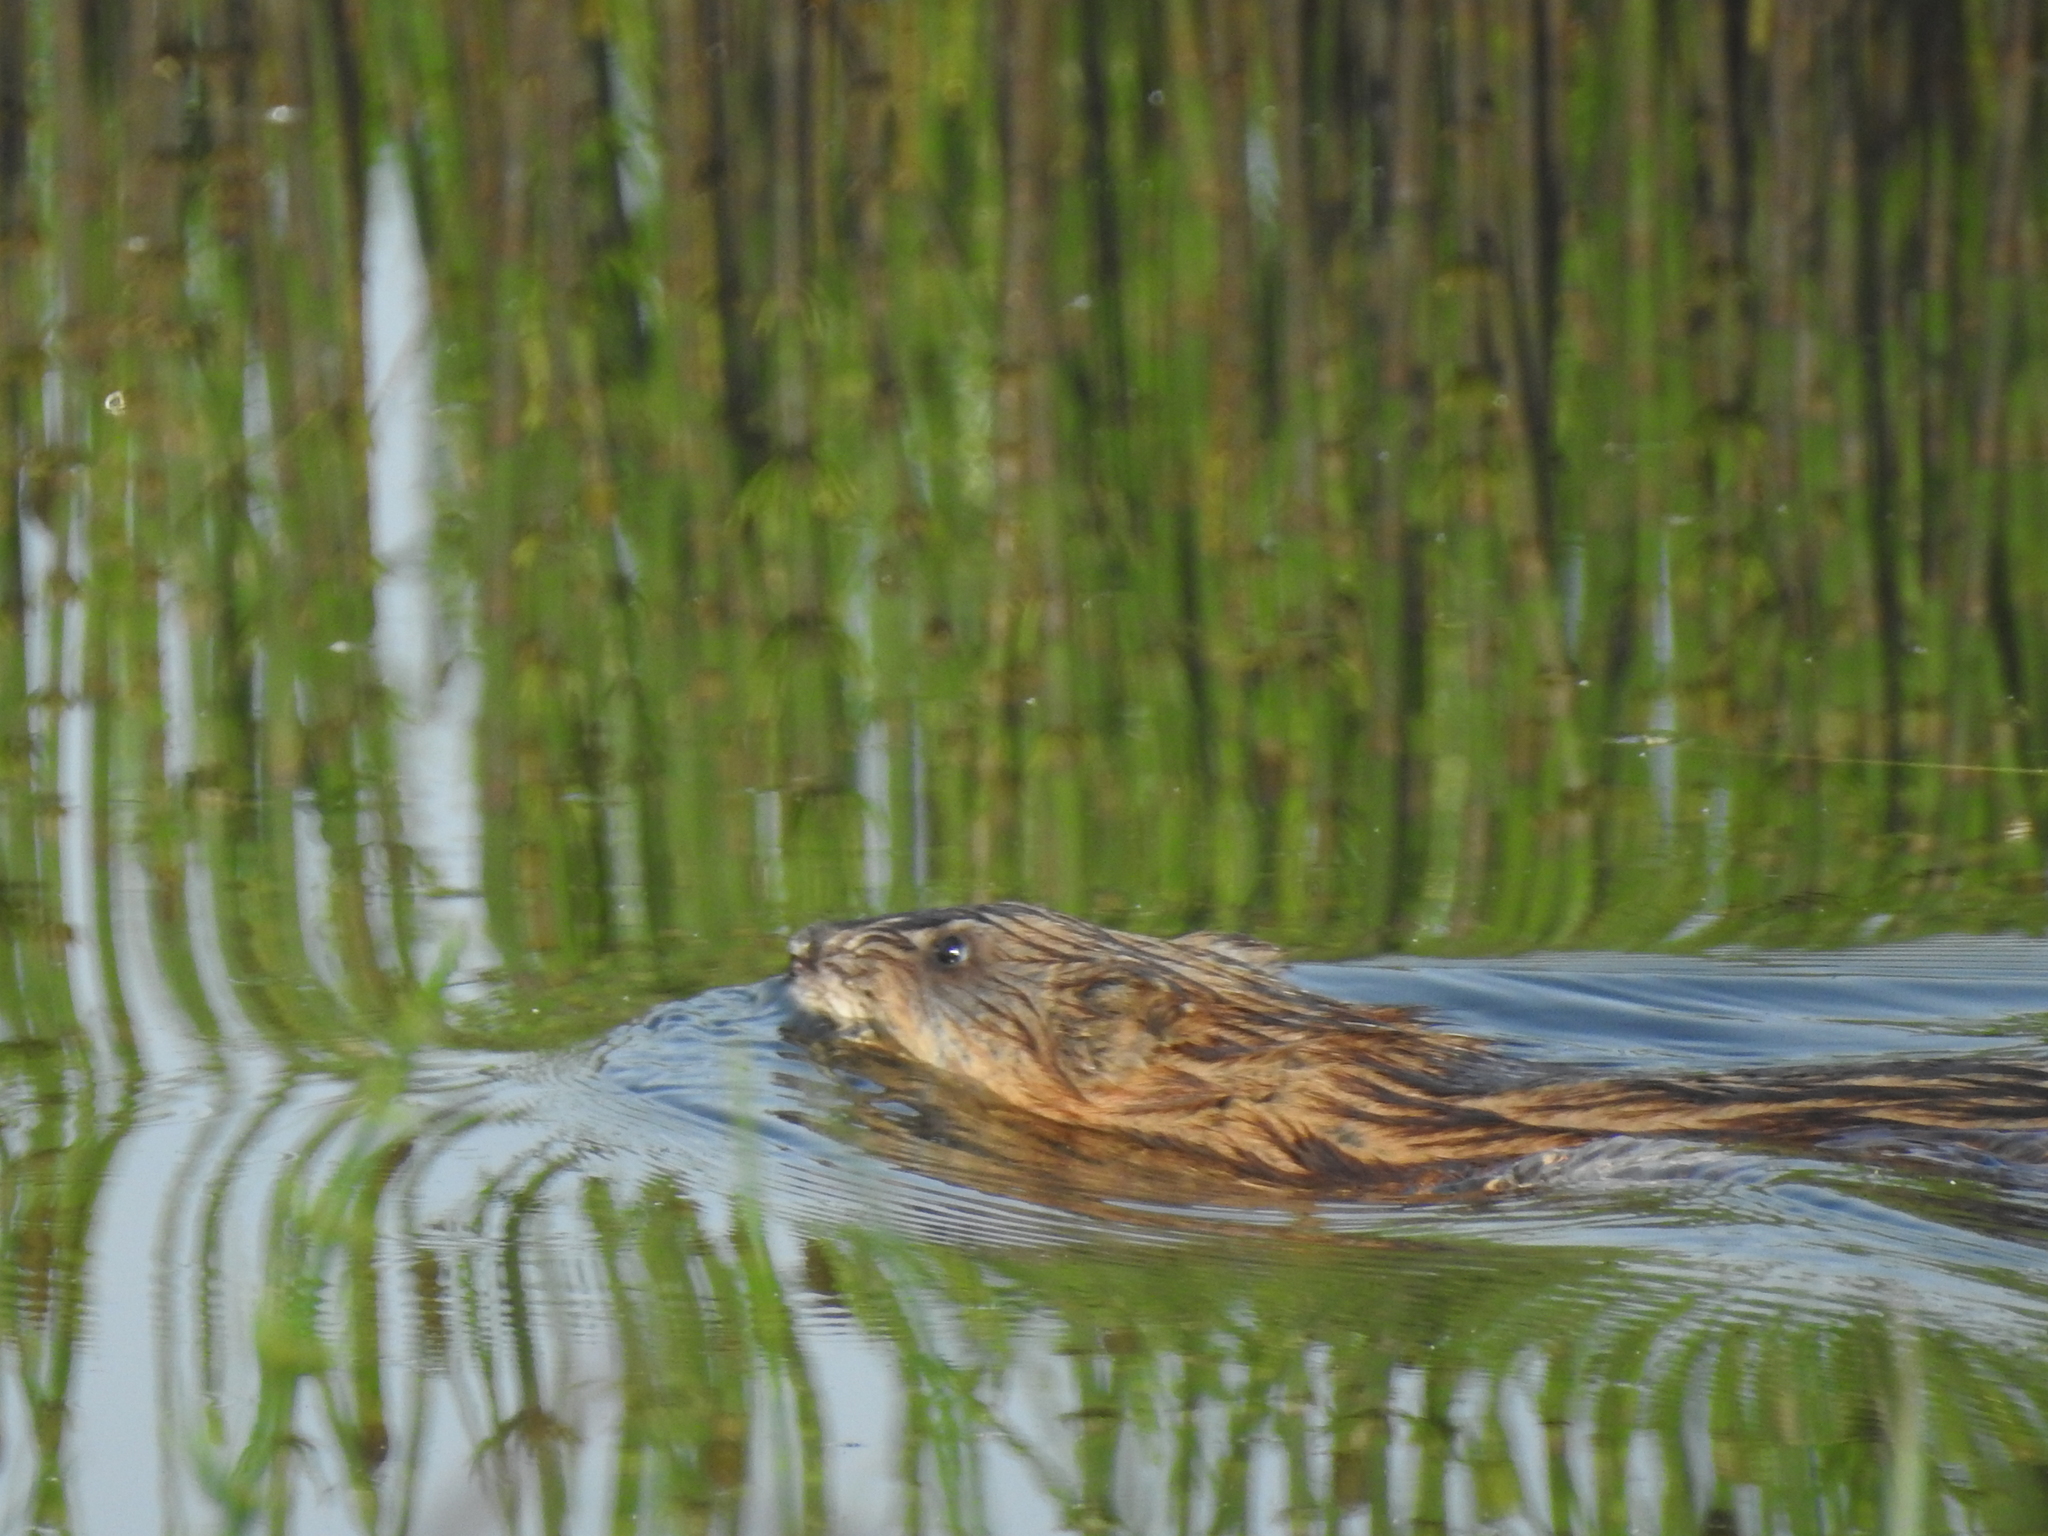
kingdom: Animalia
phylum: Chordata
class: Mammalia
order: Rodentia
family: Cricetidae
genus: Ondatra
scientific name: Ondatra zibethicus
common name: Muskrat
